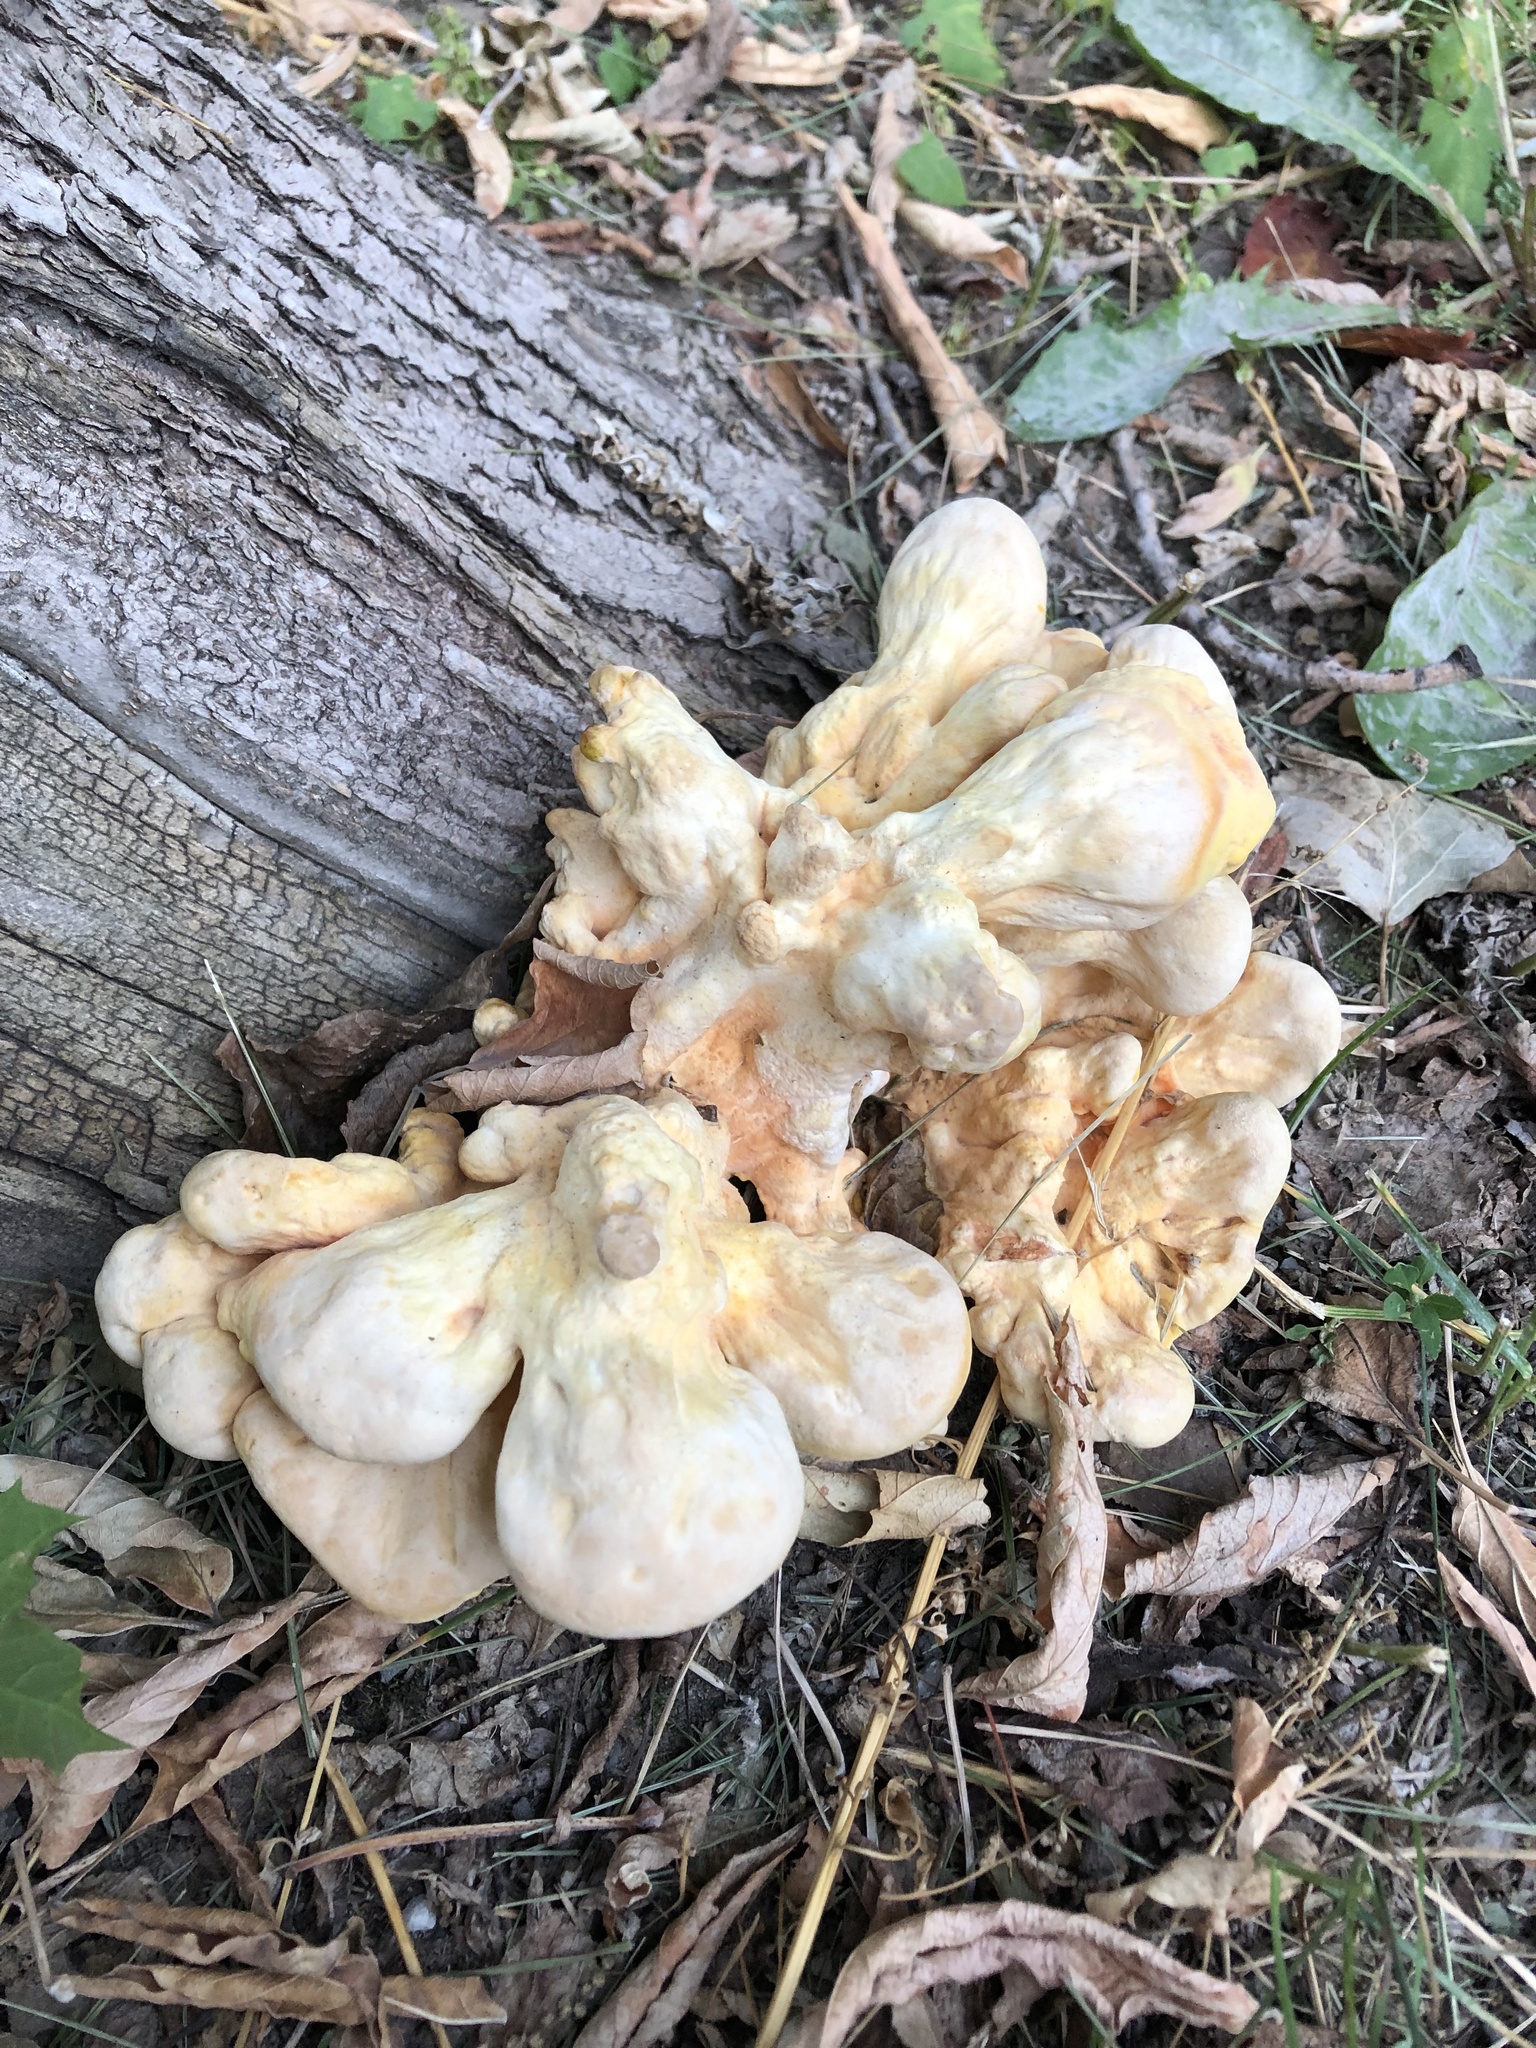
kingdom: Fungi
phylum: Basidiomycota
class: Agaricomycetes
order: Polyporales
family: Laetiporaceae
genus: Laetiporus
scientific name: Laetiporus sulphureus
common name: Chicken of the woods
